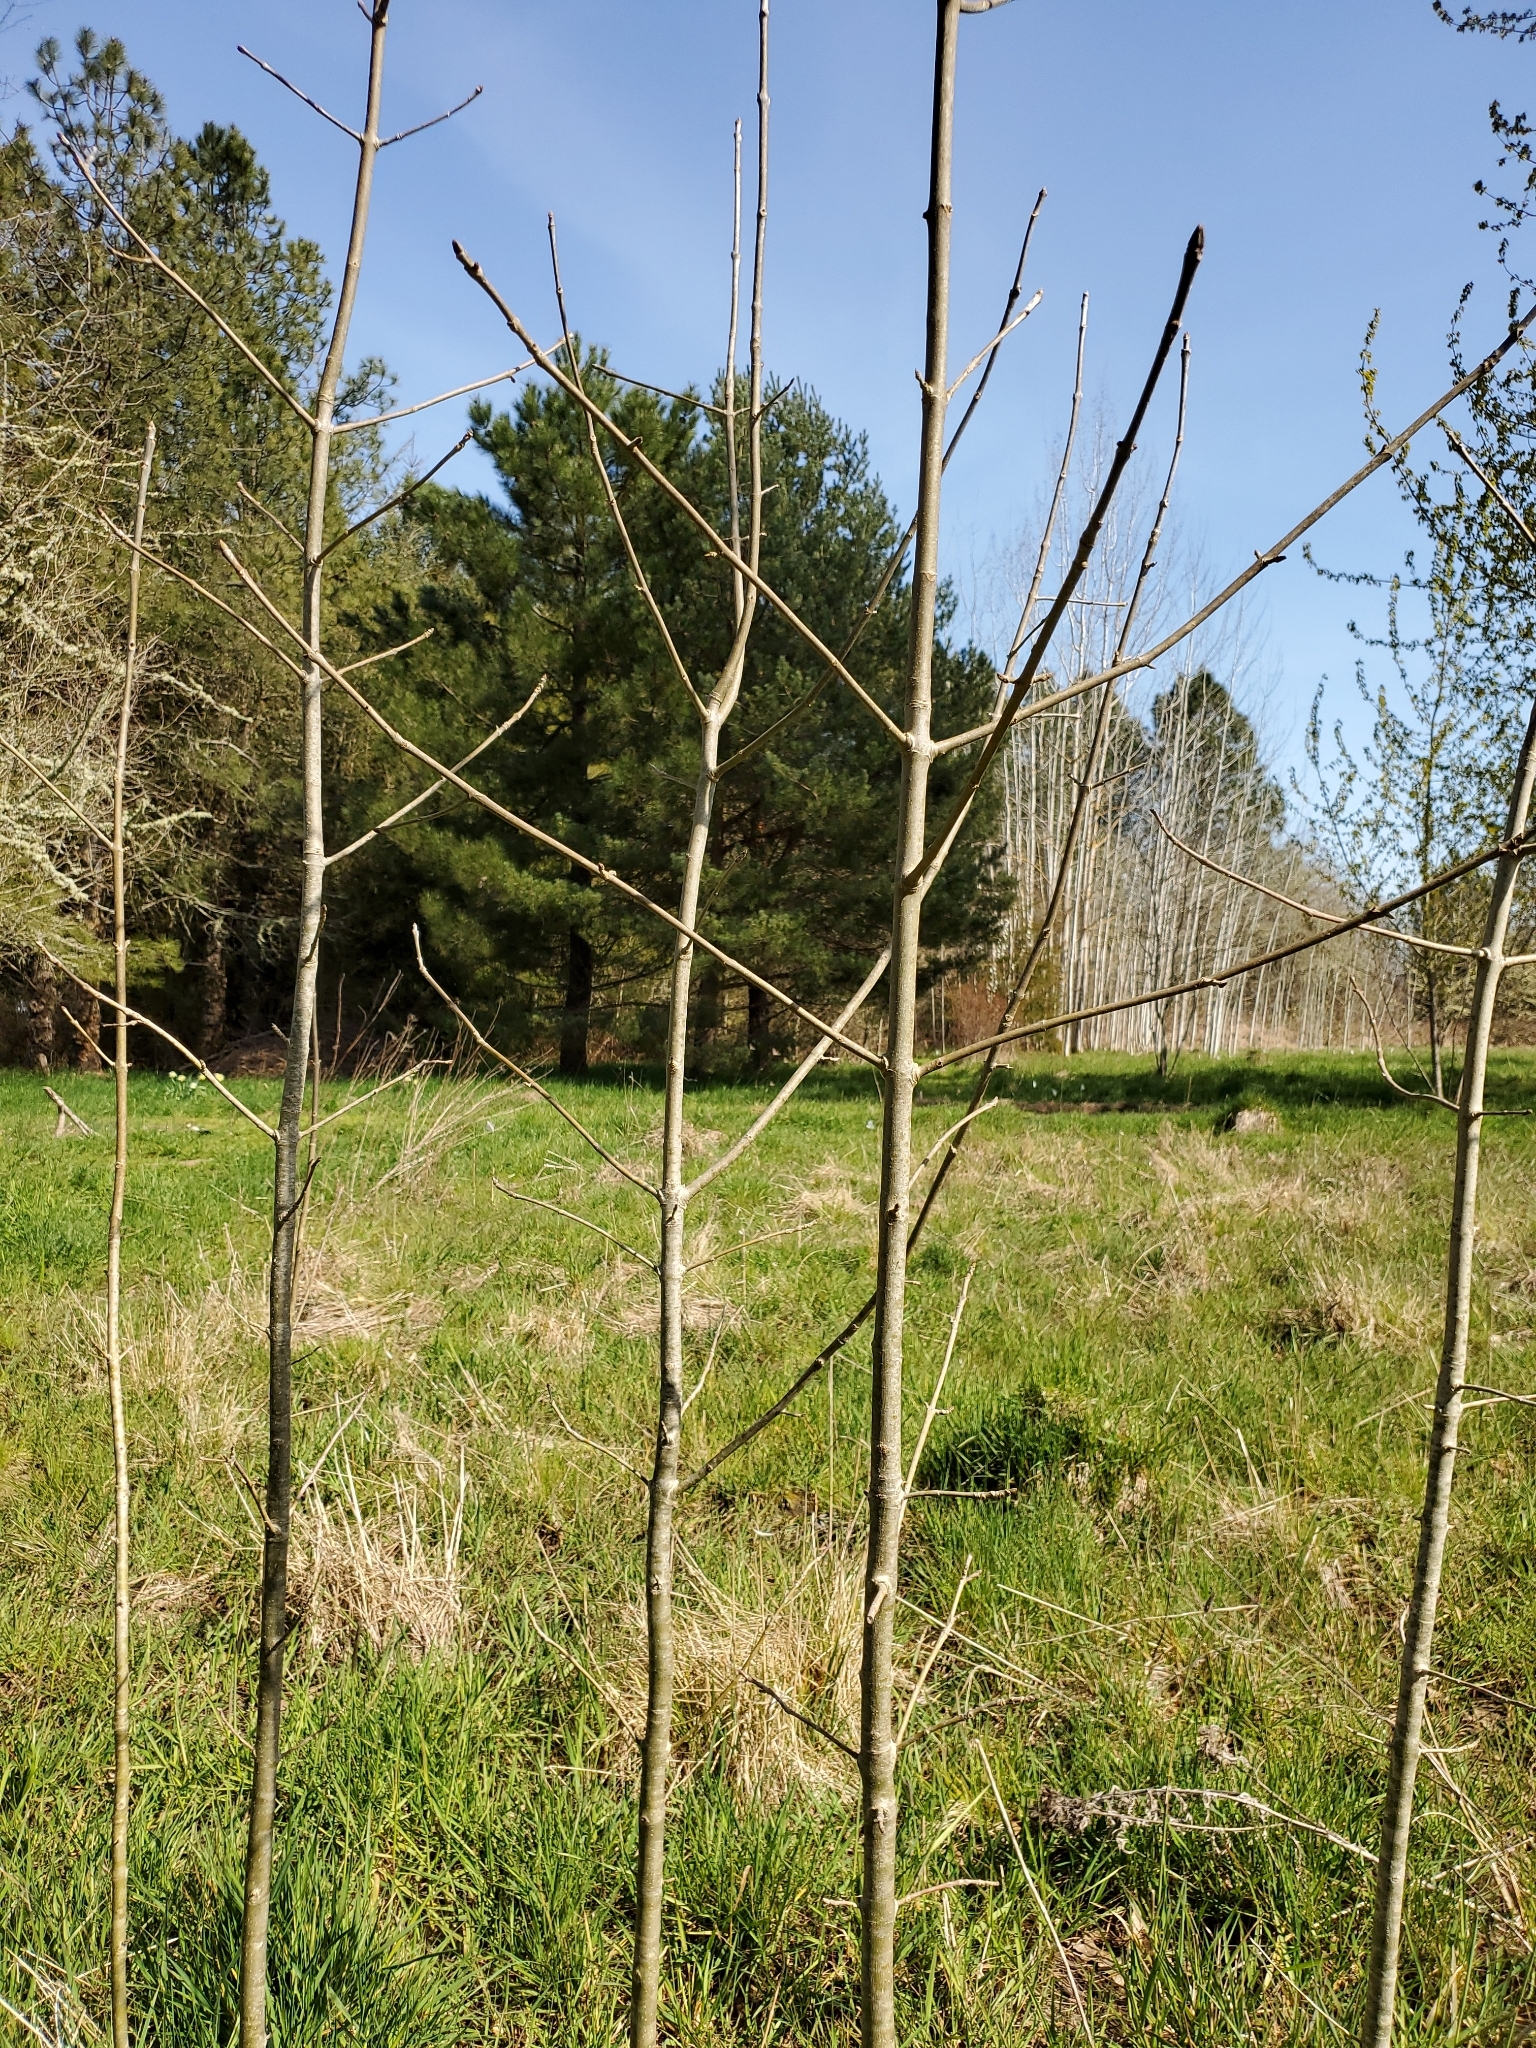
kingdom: Plantae
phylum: Tracheophyta
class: Magnoliopsida
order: Lamiales
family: Oleaceae
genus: Fraxinus
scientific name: Fraxinus latifolia
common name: Oregon ash
